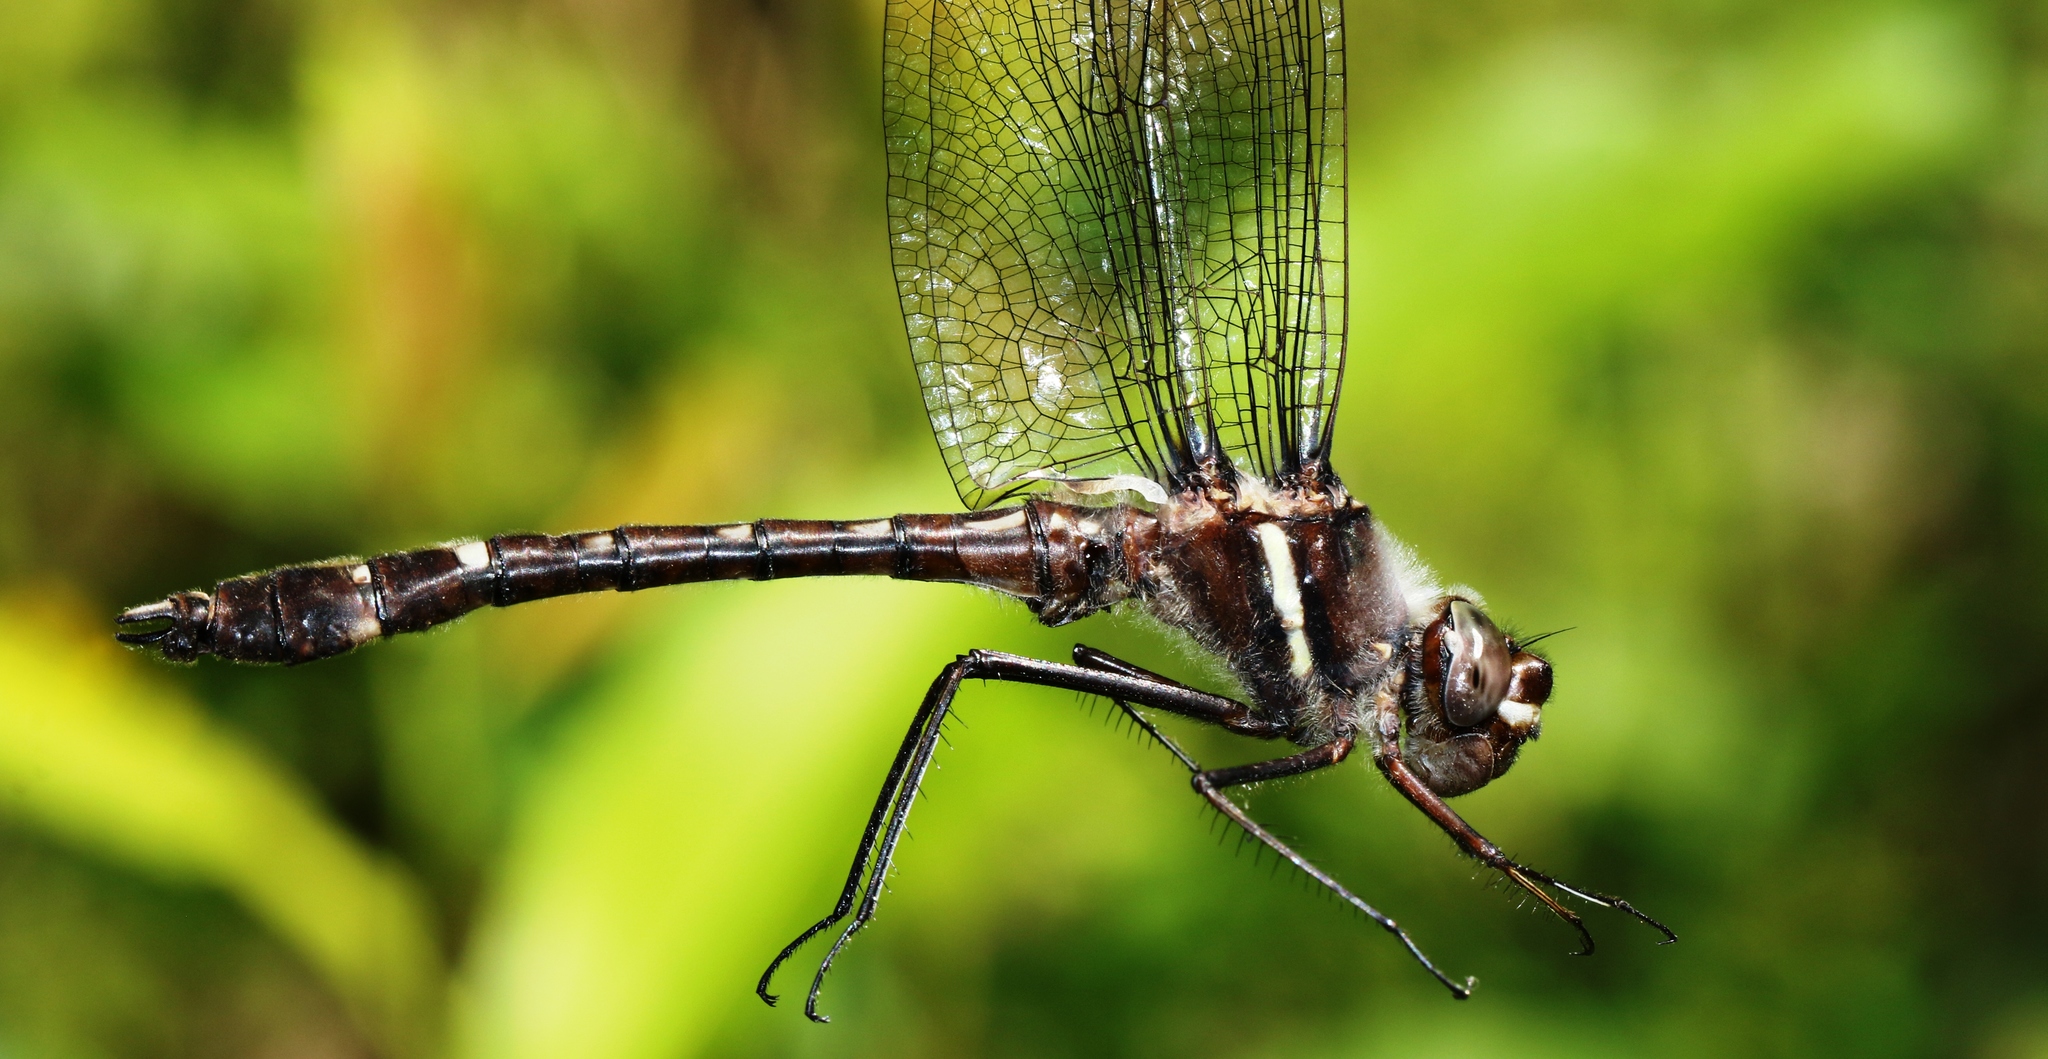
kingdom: Animalia
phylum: Arthropoda
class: Insecta
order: Odonata
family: Macromiidae
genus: Didymops
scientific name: Didymops transversa
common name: Stream cruiser
